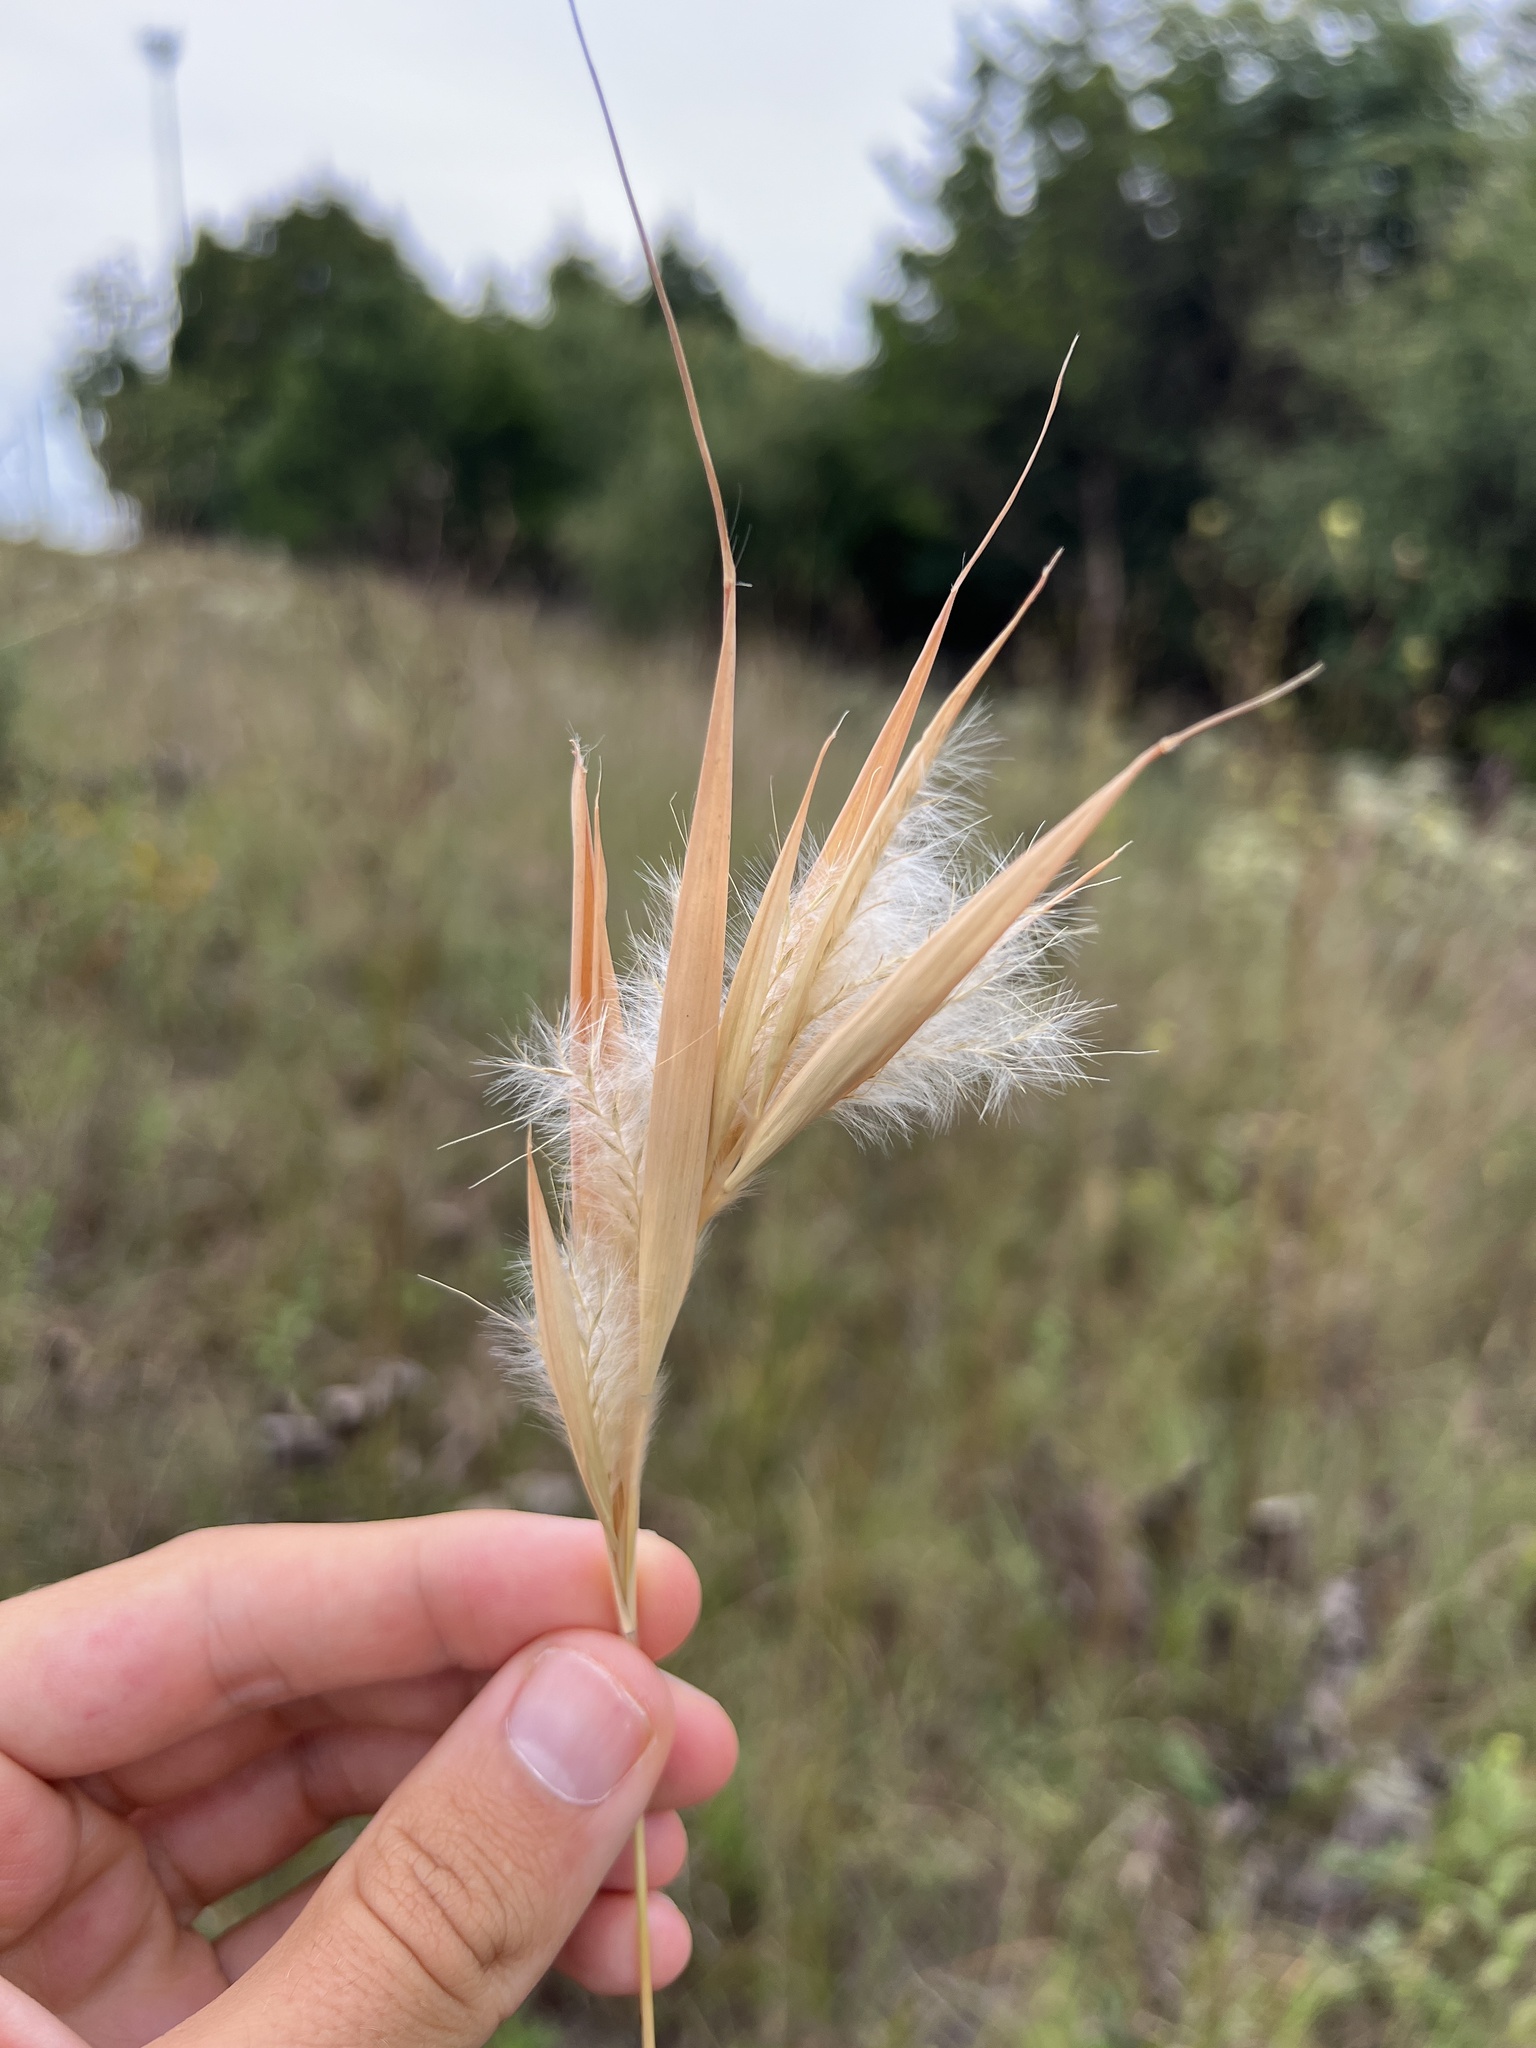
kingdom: Plantae
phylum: Tracheophyta
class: Liliopsida
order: Poales
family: Poaceae
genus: Andropogon
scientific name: Andropogon gyrans
